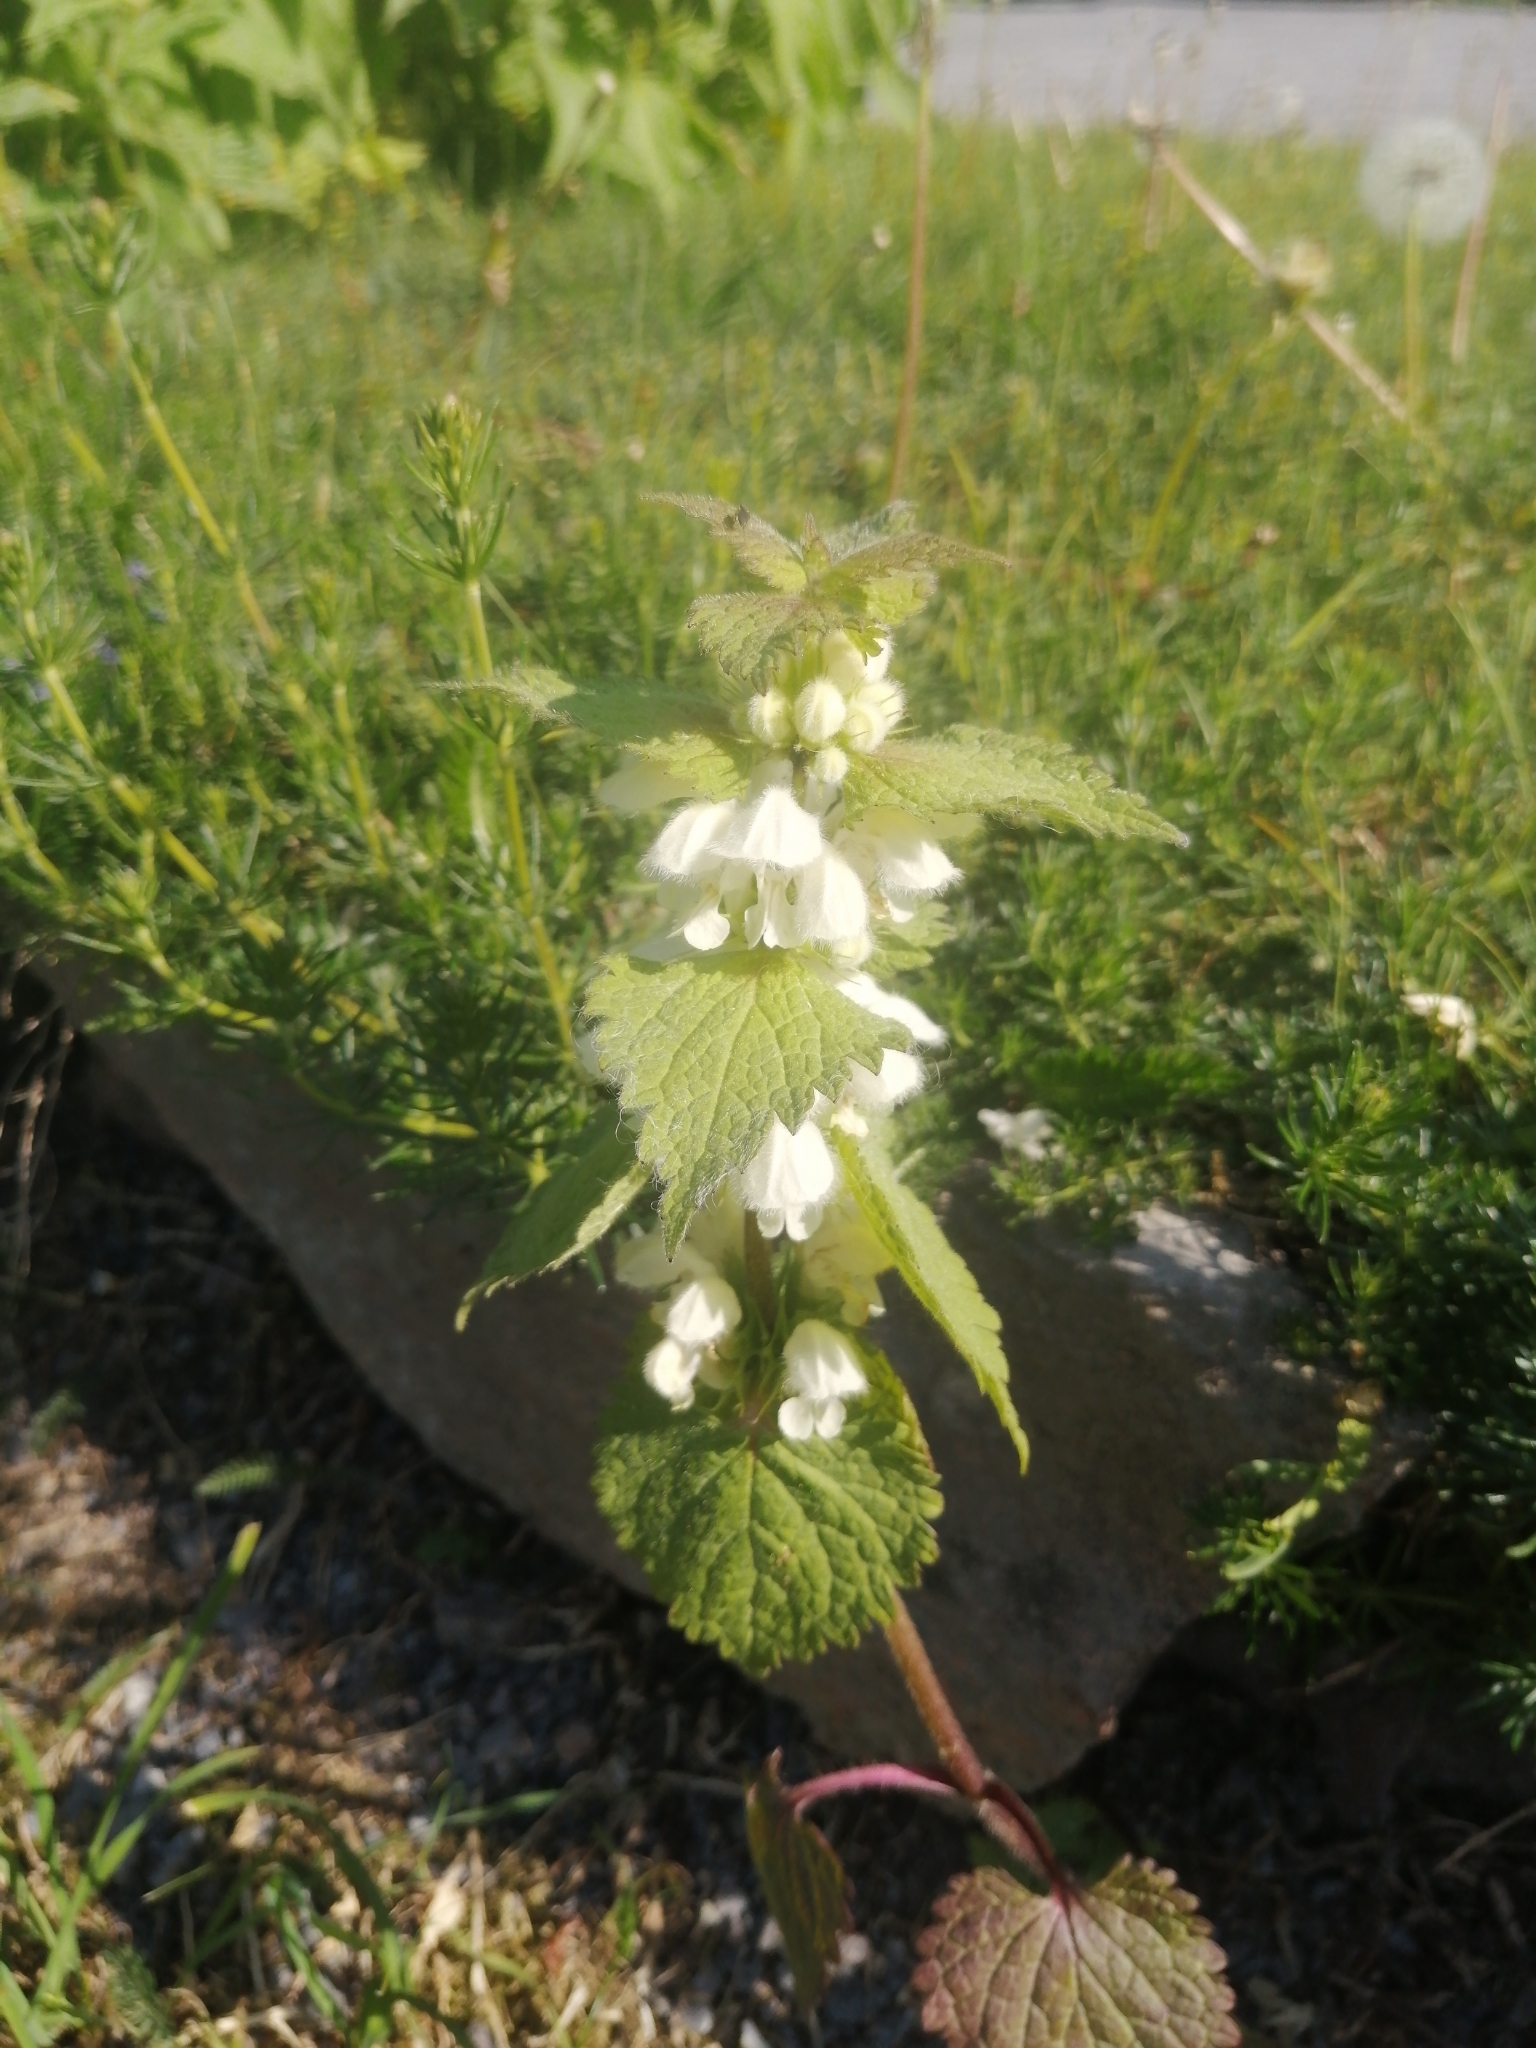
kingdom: Plantae
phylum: Tracheophyta
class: Magnoliopsida
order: Lamiales
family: Lamiaceae
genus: Lamium
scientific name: Lamium album
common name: White dead-nettle
